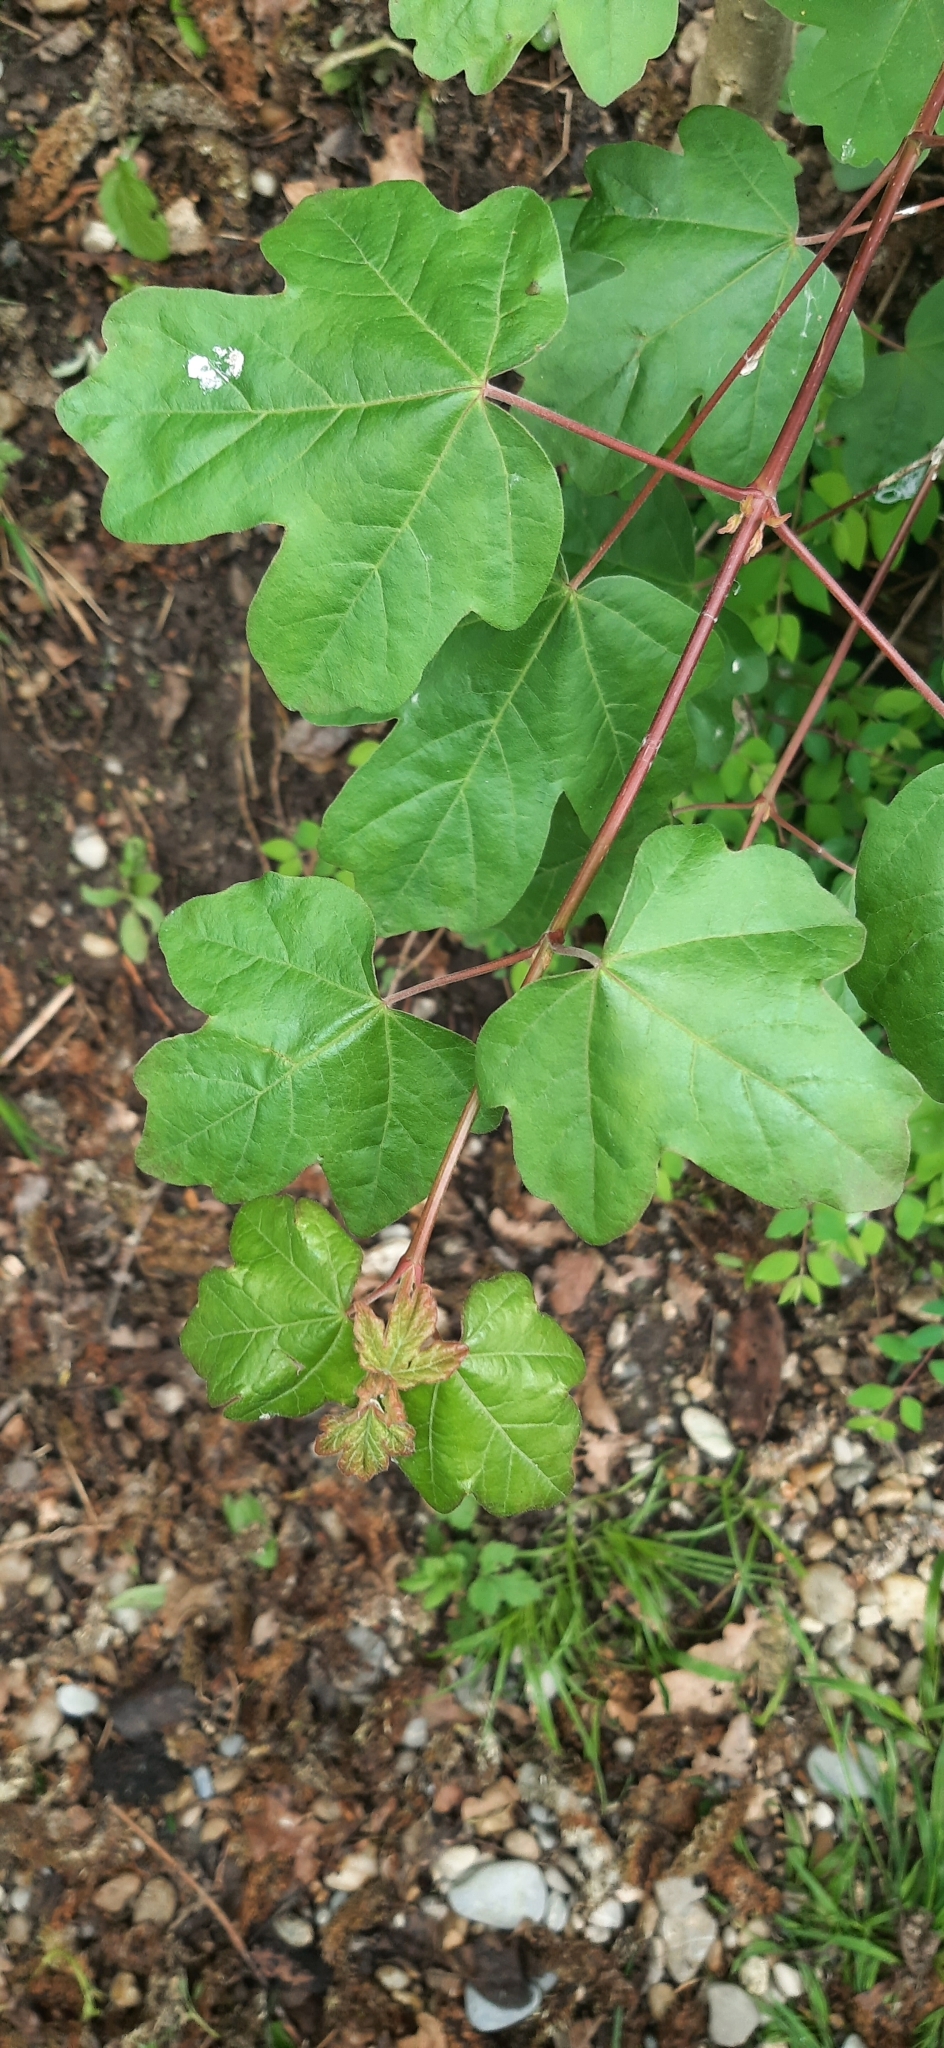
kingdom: Plantae
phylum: Tracheophyta
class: Magnoliopsida
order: Sapindales
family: Sapindaceae
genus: Acer
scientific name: Acer campestre
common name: Field maple
